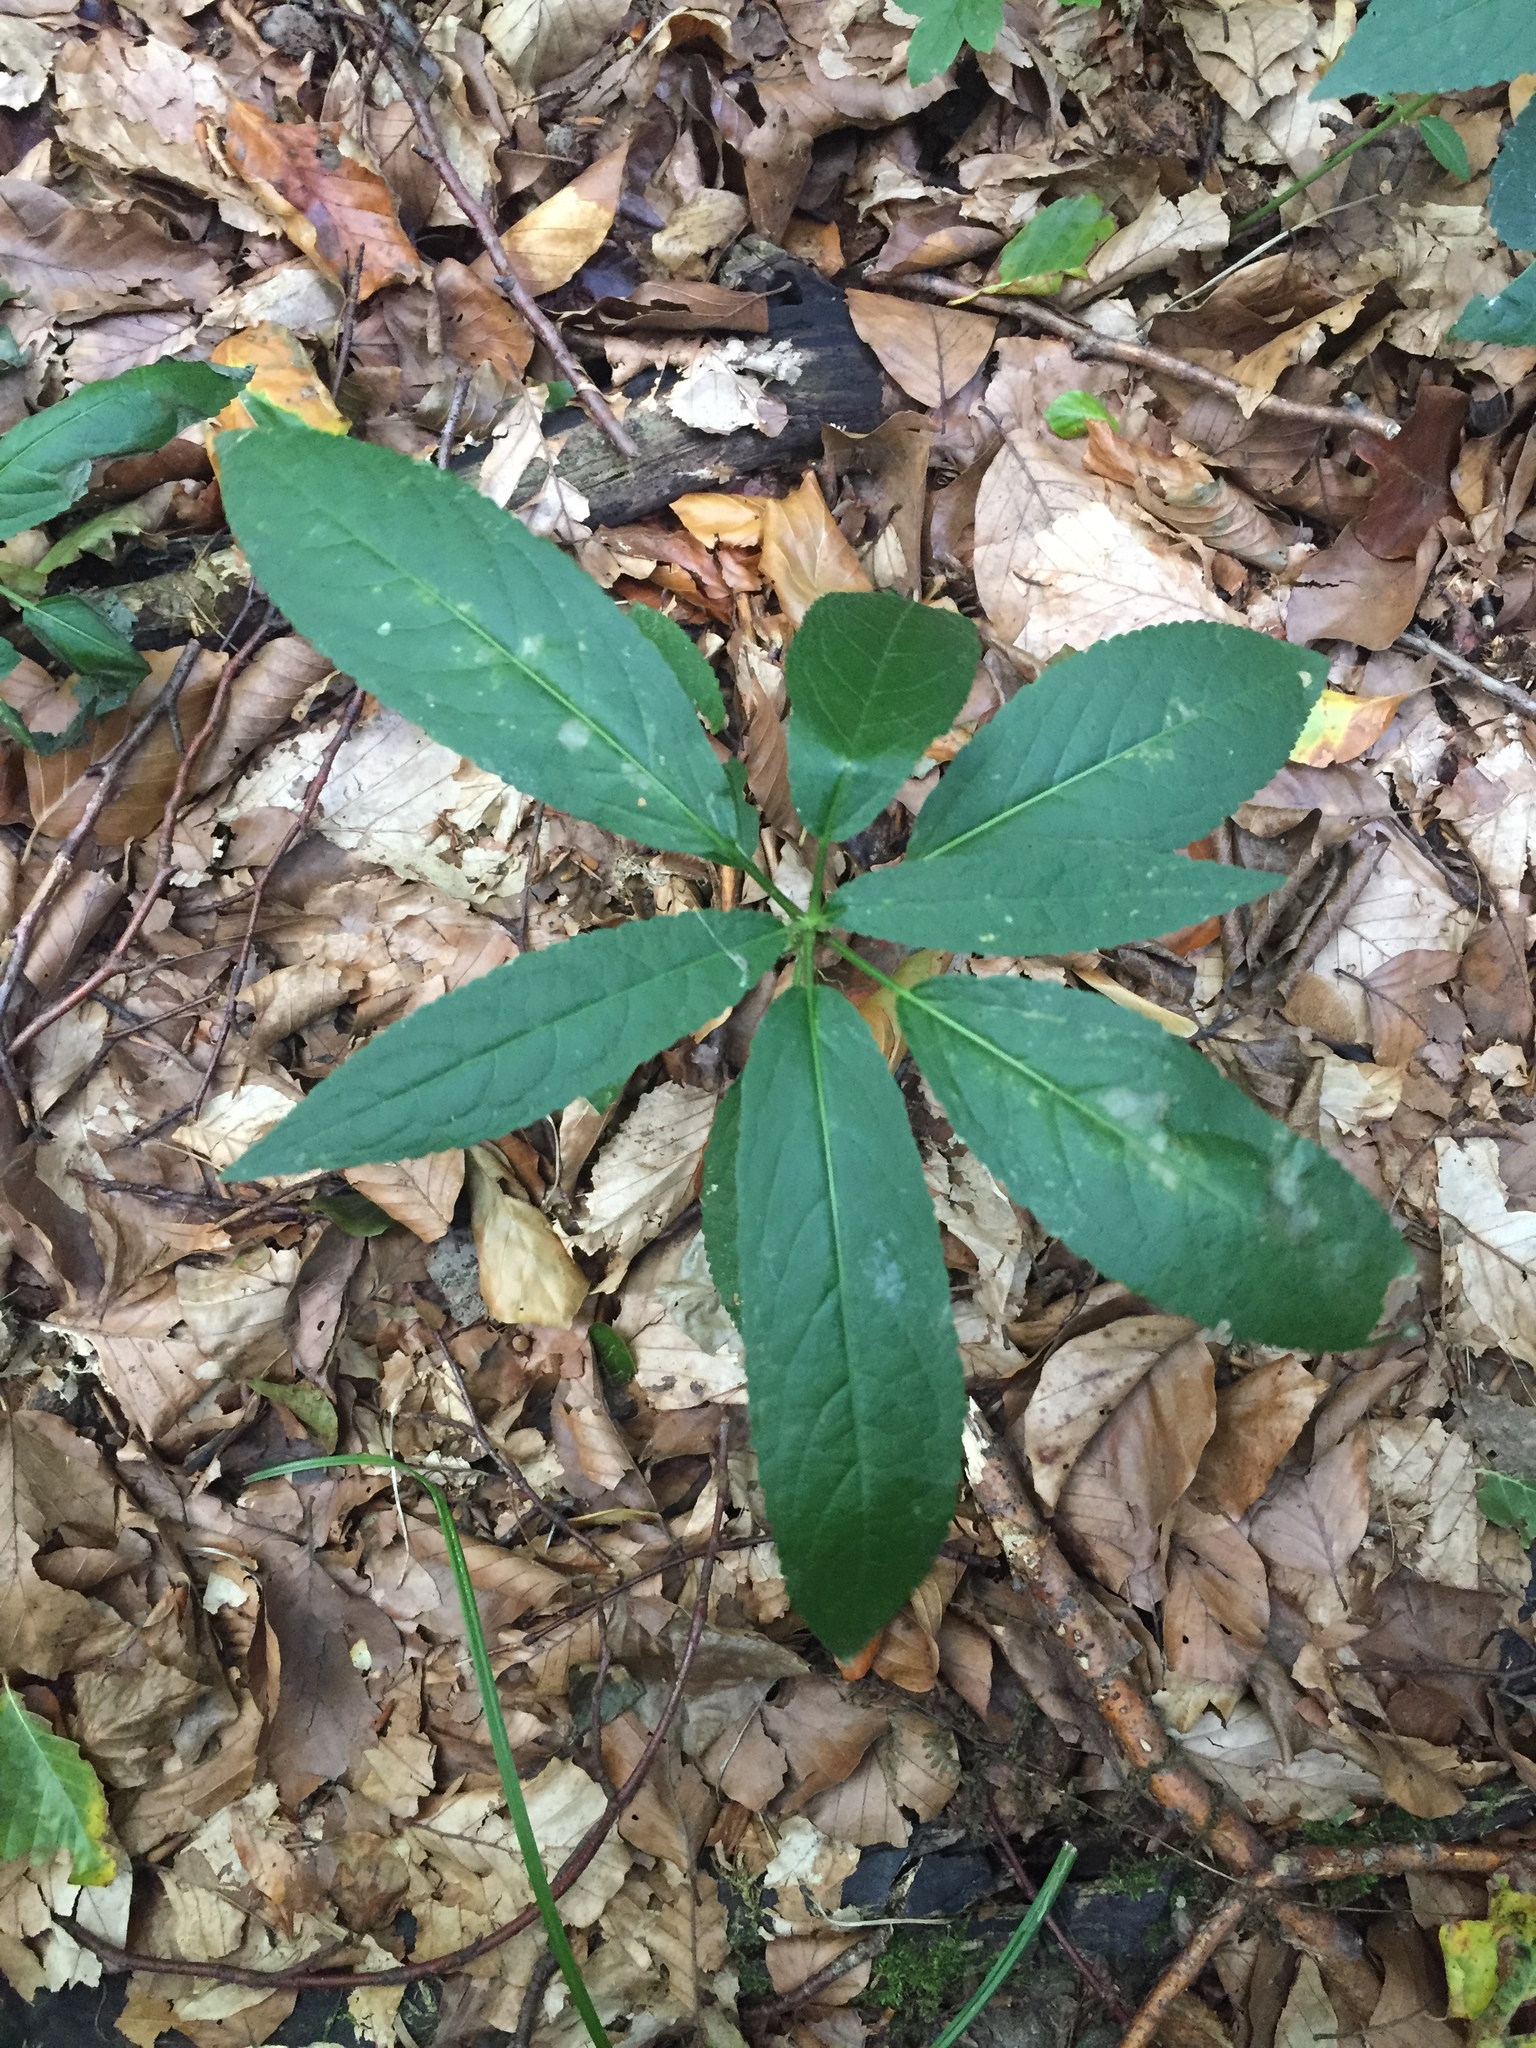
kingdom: Plantae
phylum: Tracheophyta
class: Magnoliopsida
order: Malpighiales
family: Euphorbiaceae
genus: Mercurialis
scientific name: Mercurialis perennis
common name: Dog mercury
